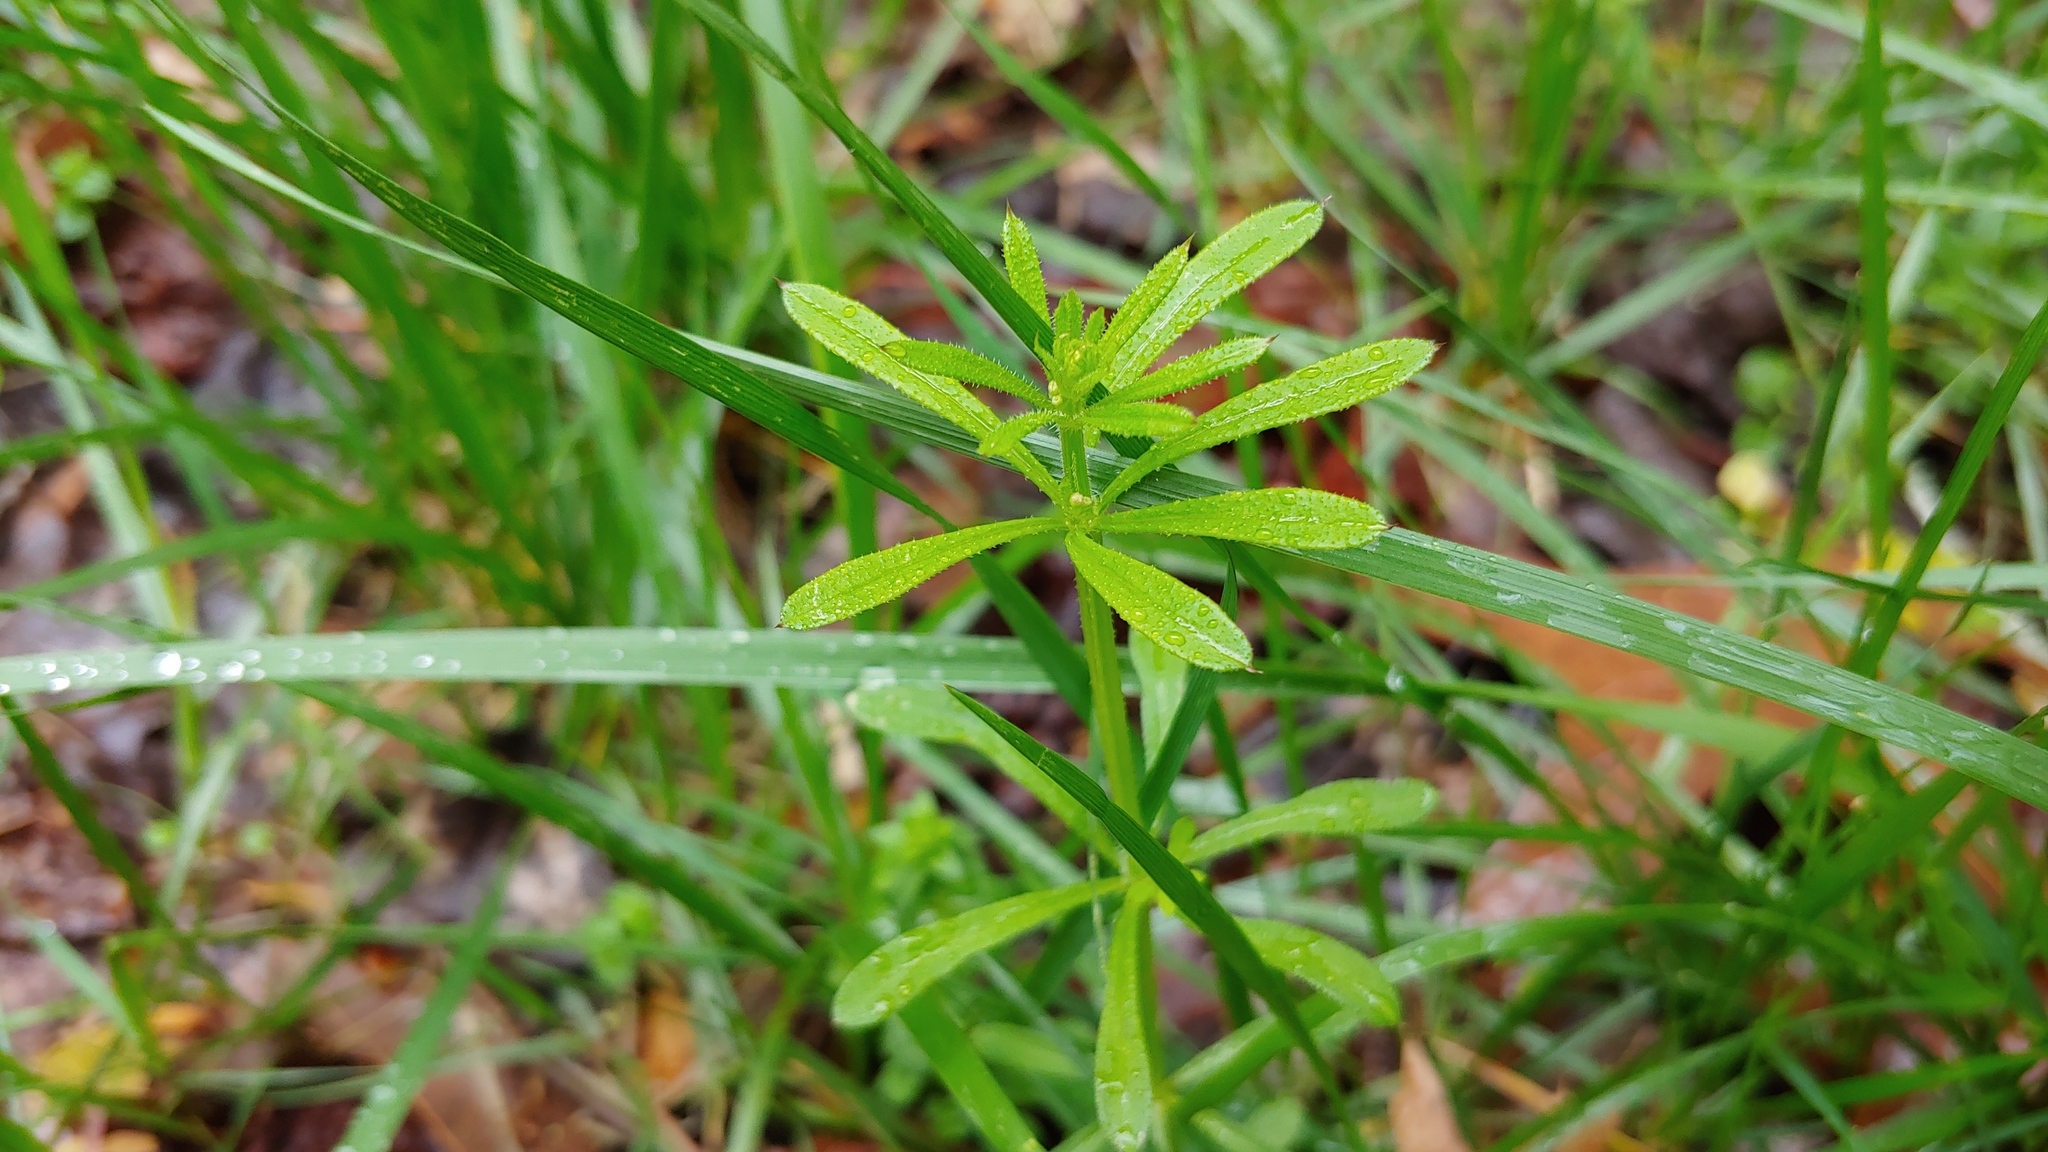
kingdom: Plantae
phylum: Tracheophyta
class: Magnoliopsida
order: Gentianales
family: Rubiaceae
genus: Galium
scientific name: Galium aparine
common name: Cleavers
